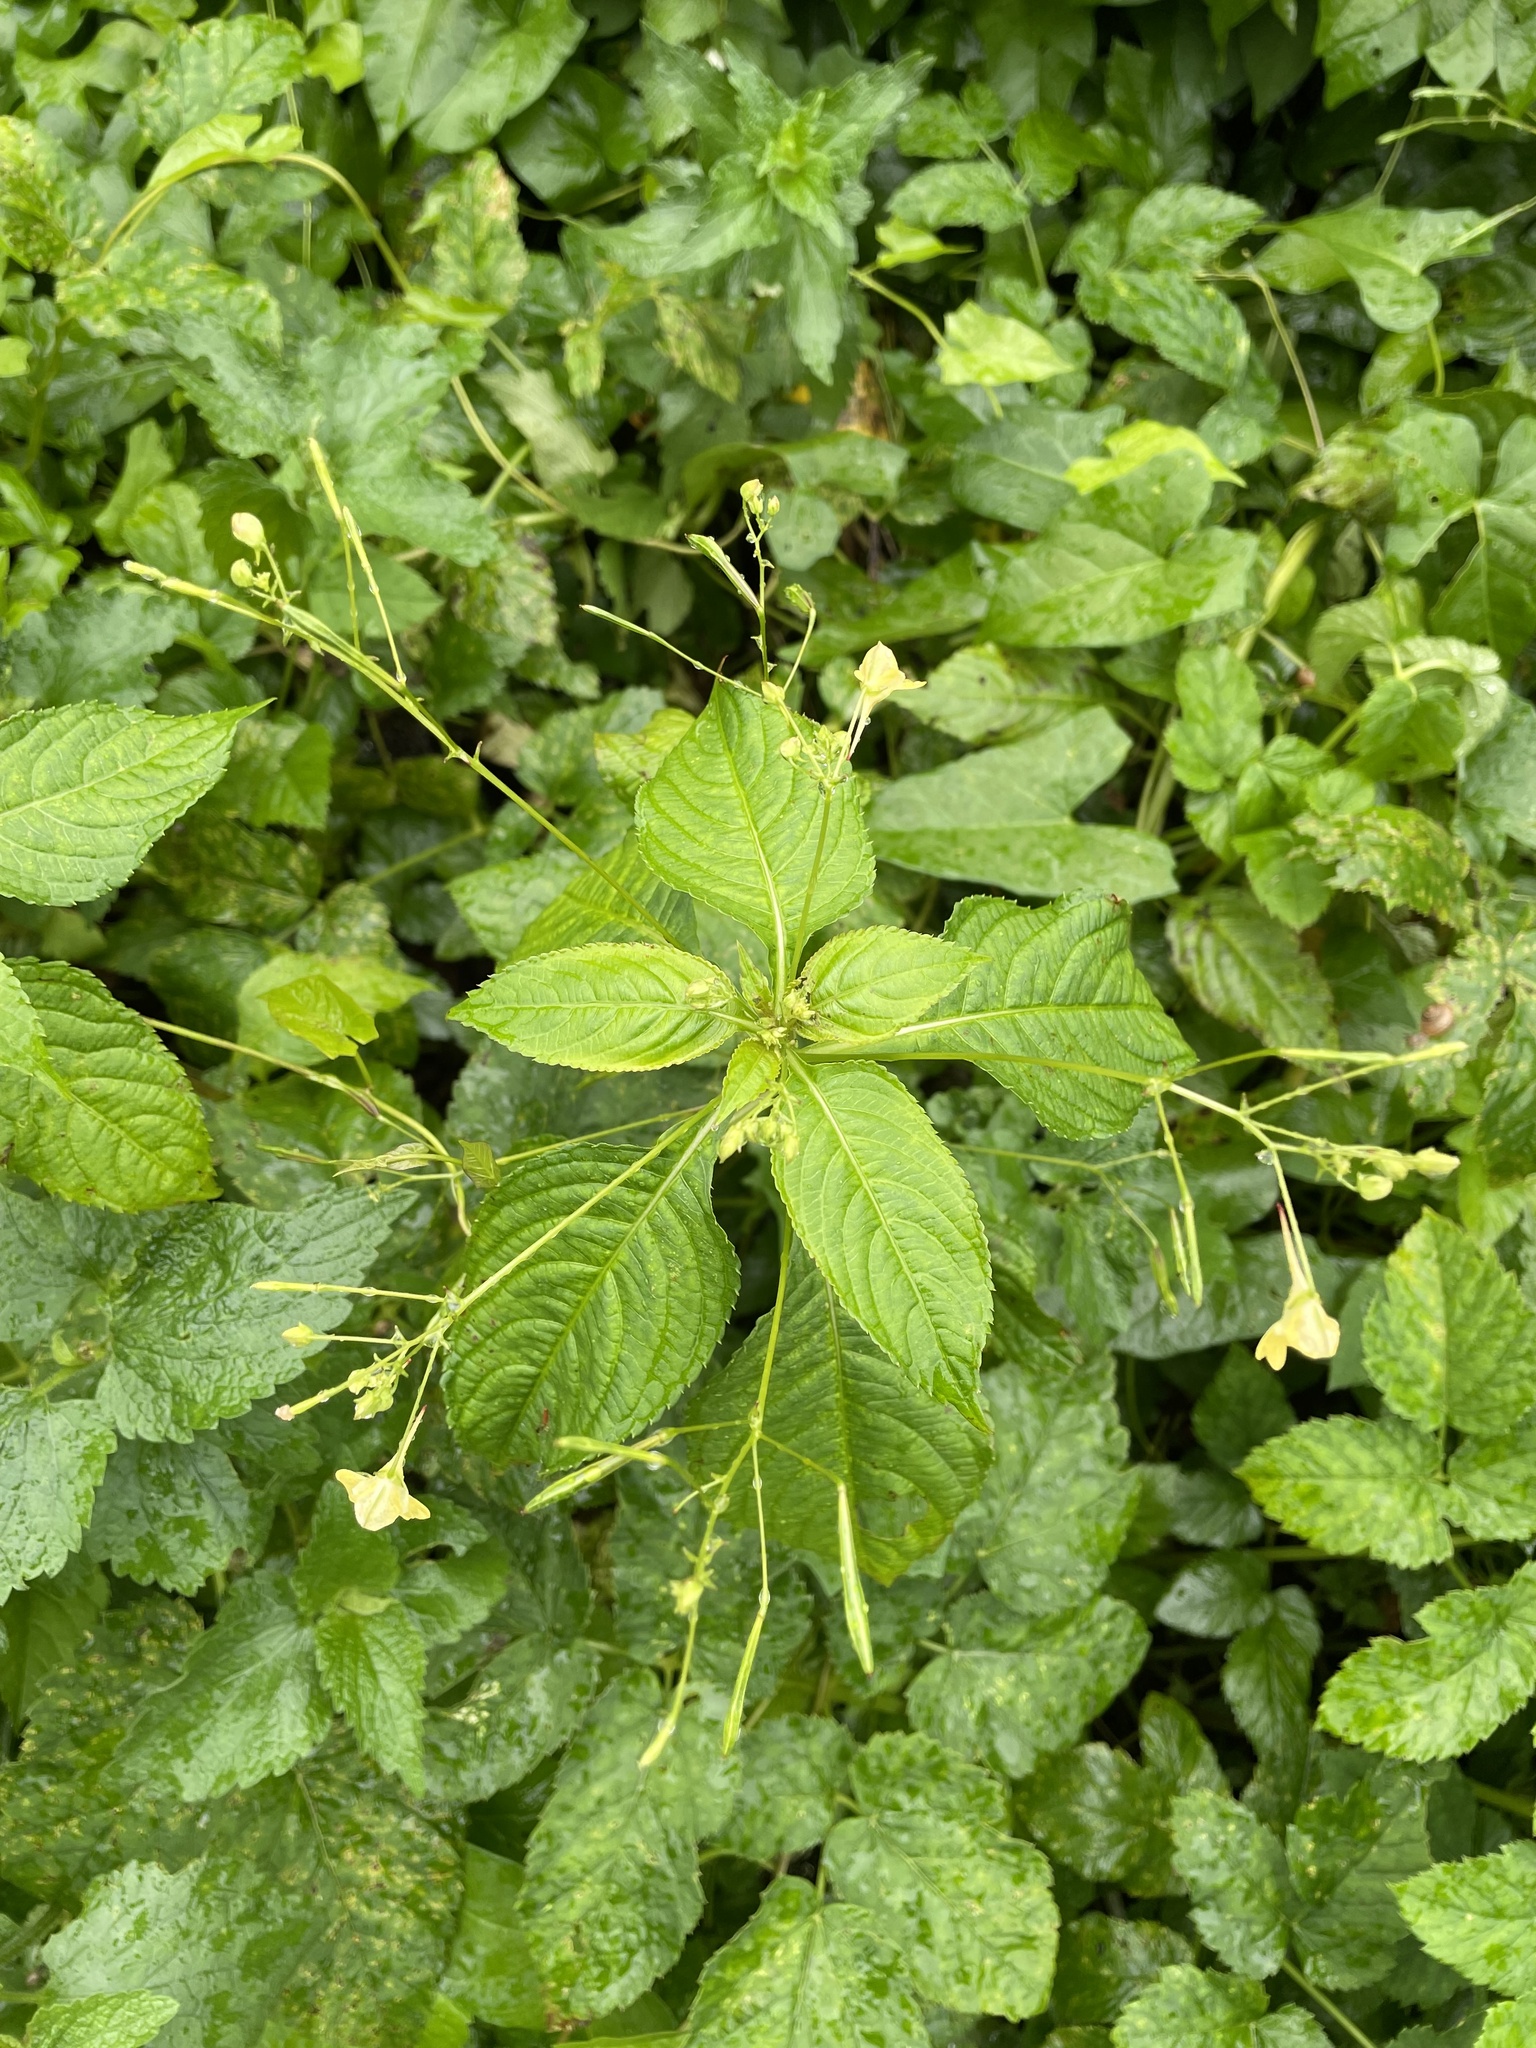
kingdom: Plantae
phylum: Tracheophyta
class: Magnoliopsida
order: Ericales
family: Balsaminaceae
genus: Impatiens
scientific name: Impatiens parviflora
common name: Small balsam
